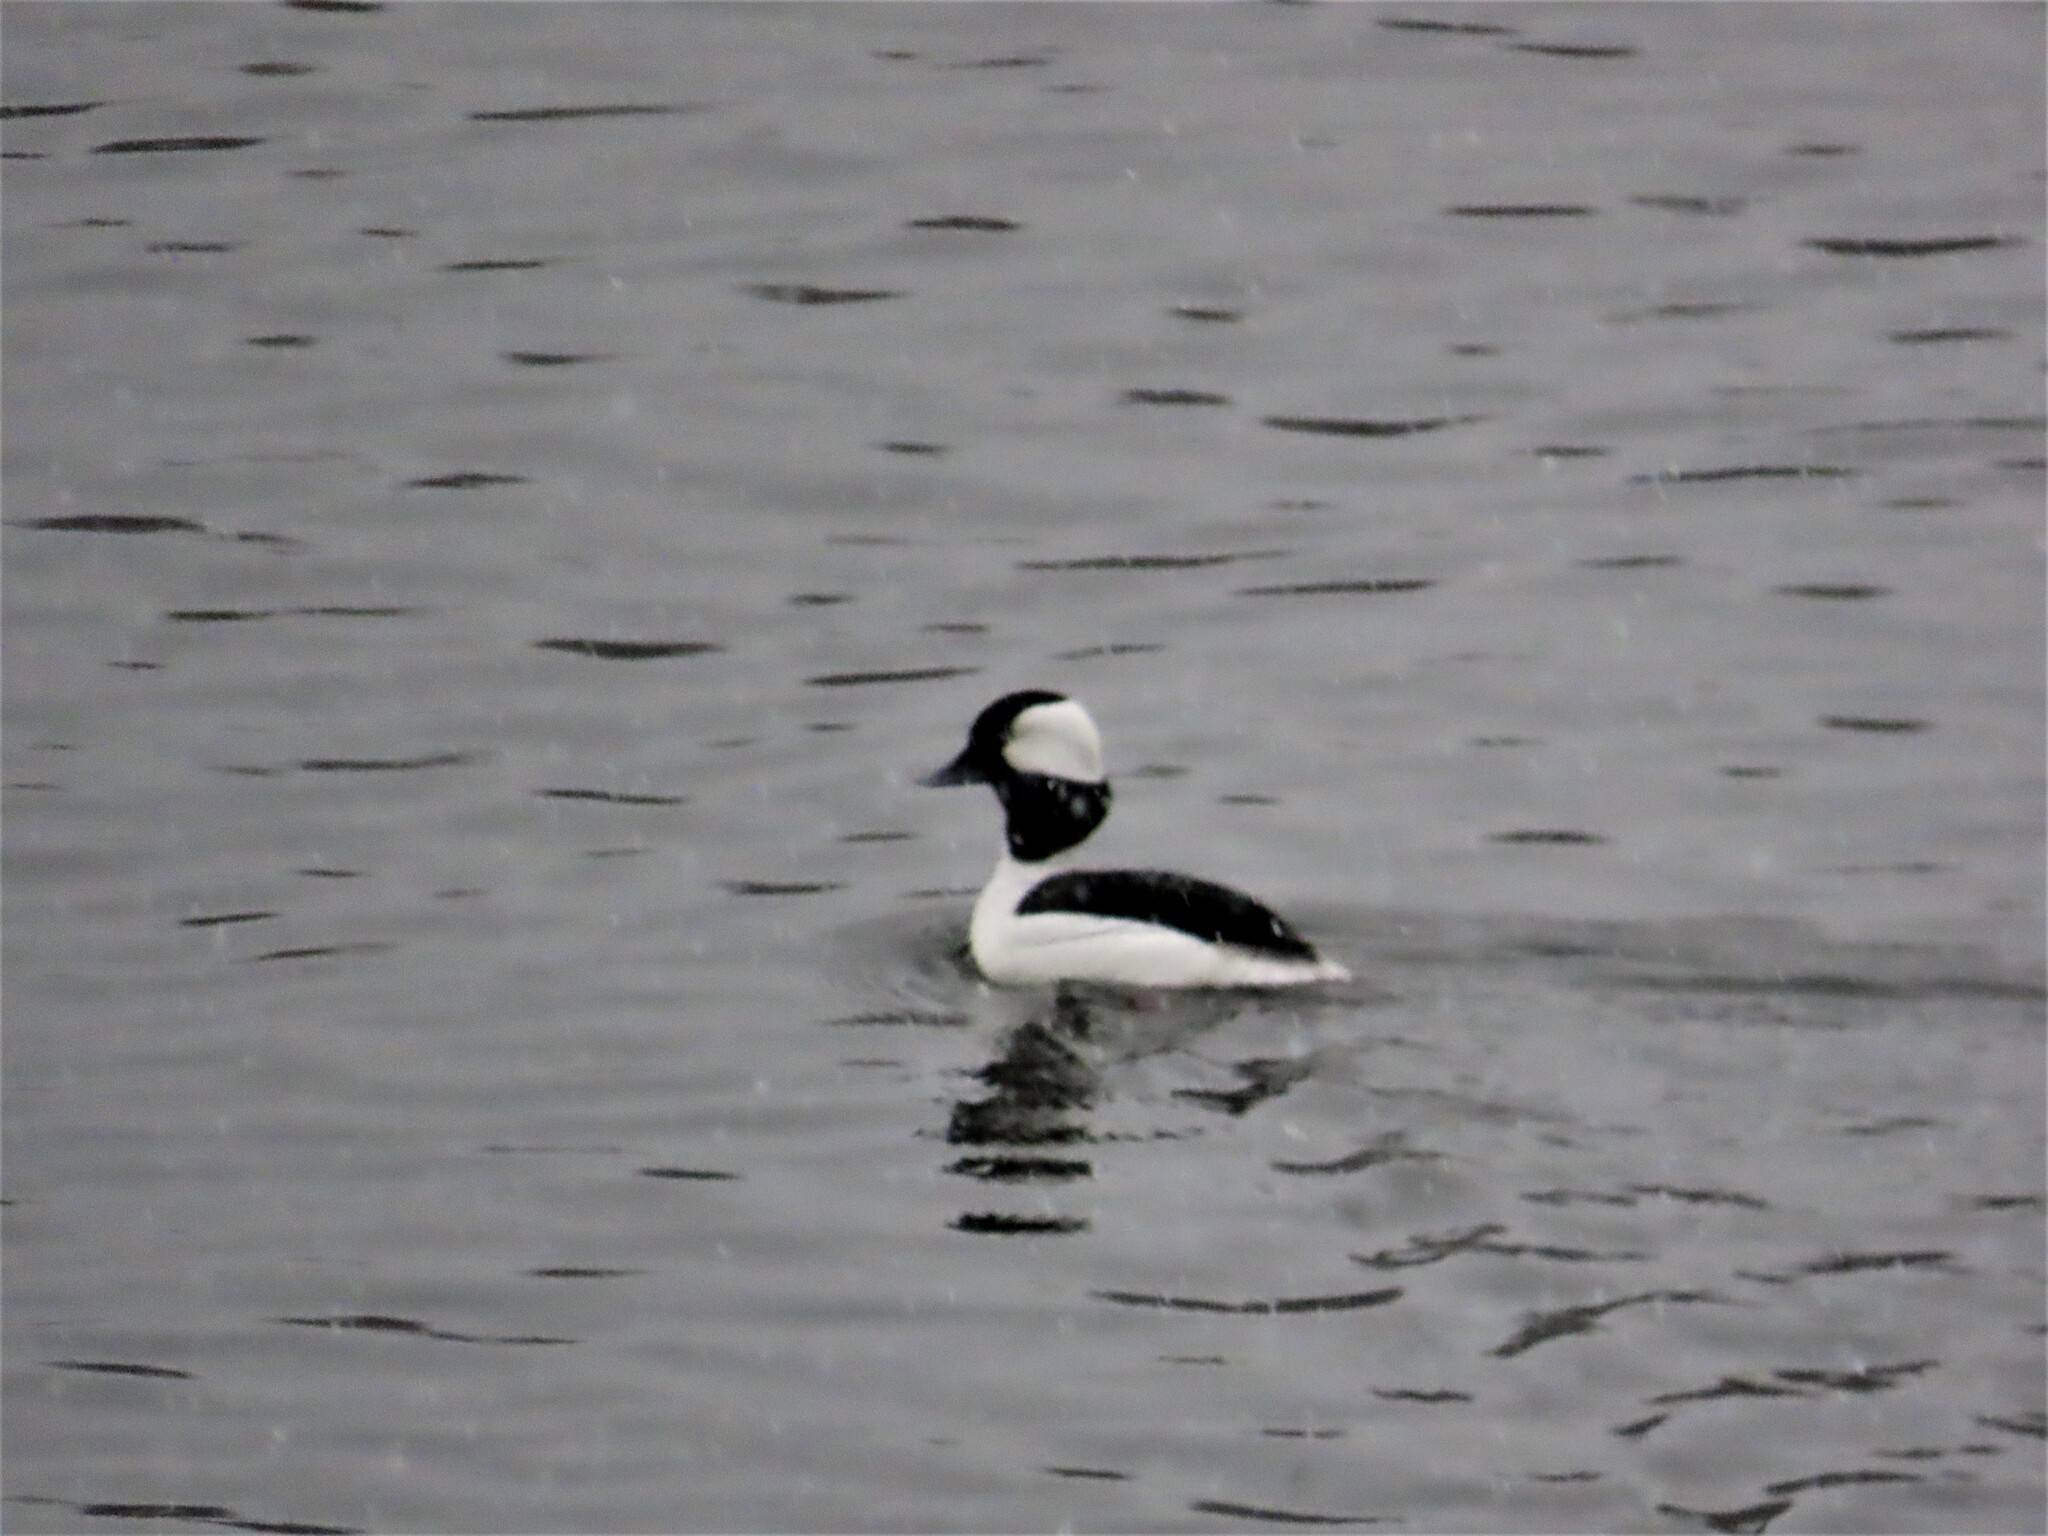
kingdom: Animalia
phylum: Chordata
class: Aves
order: Anseriformes
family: Anatidae
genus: Bucephala
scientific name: Bucephala albeola
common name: Bufflehead
